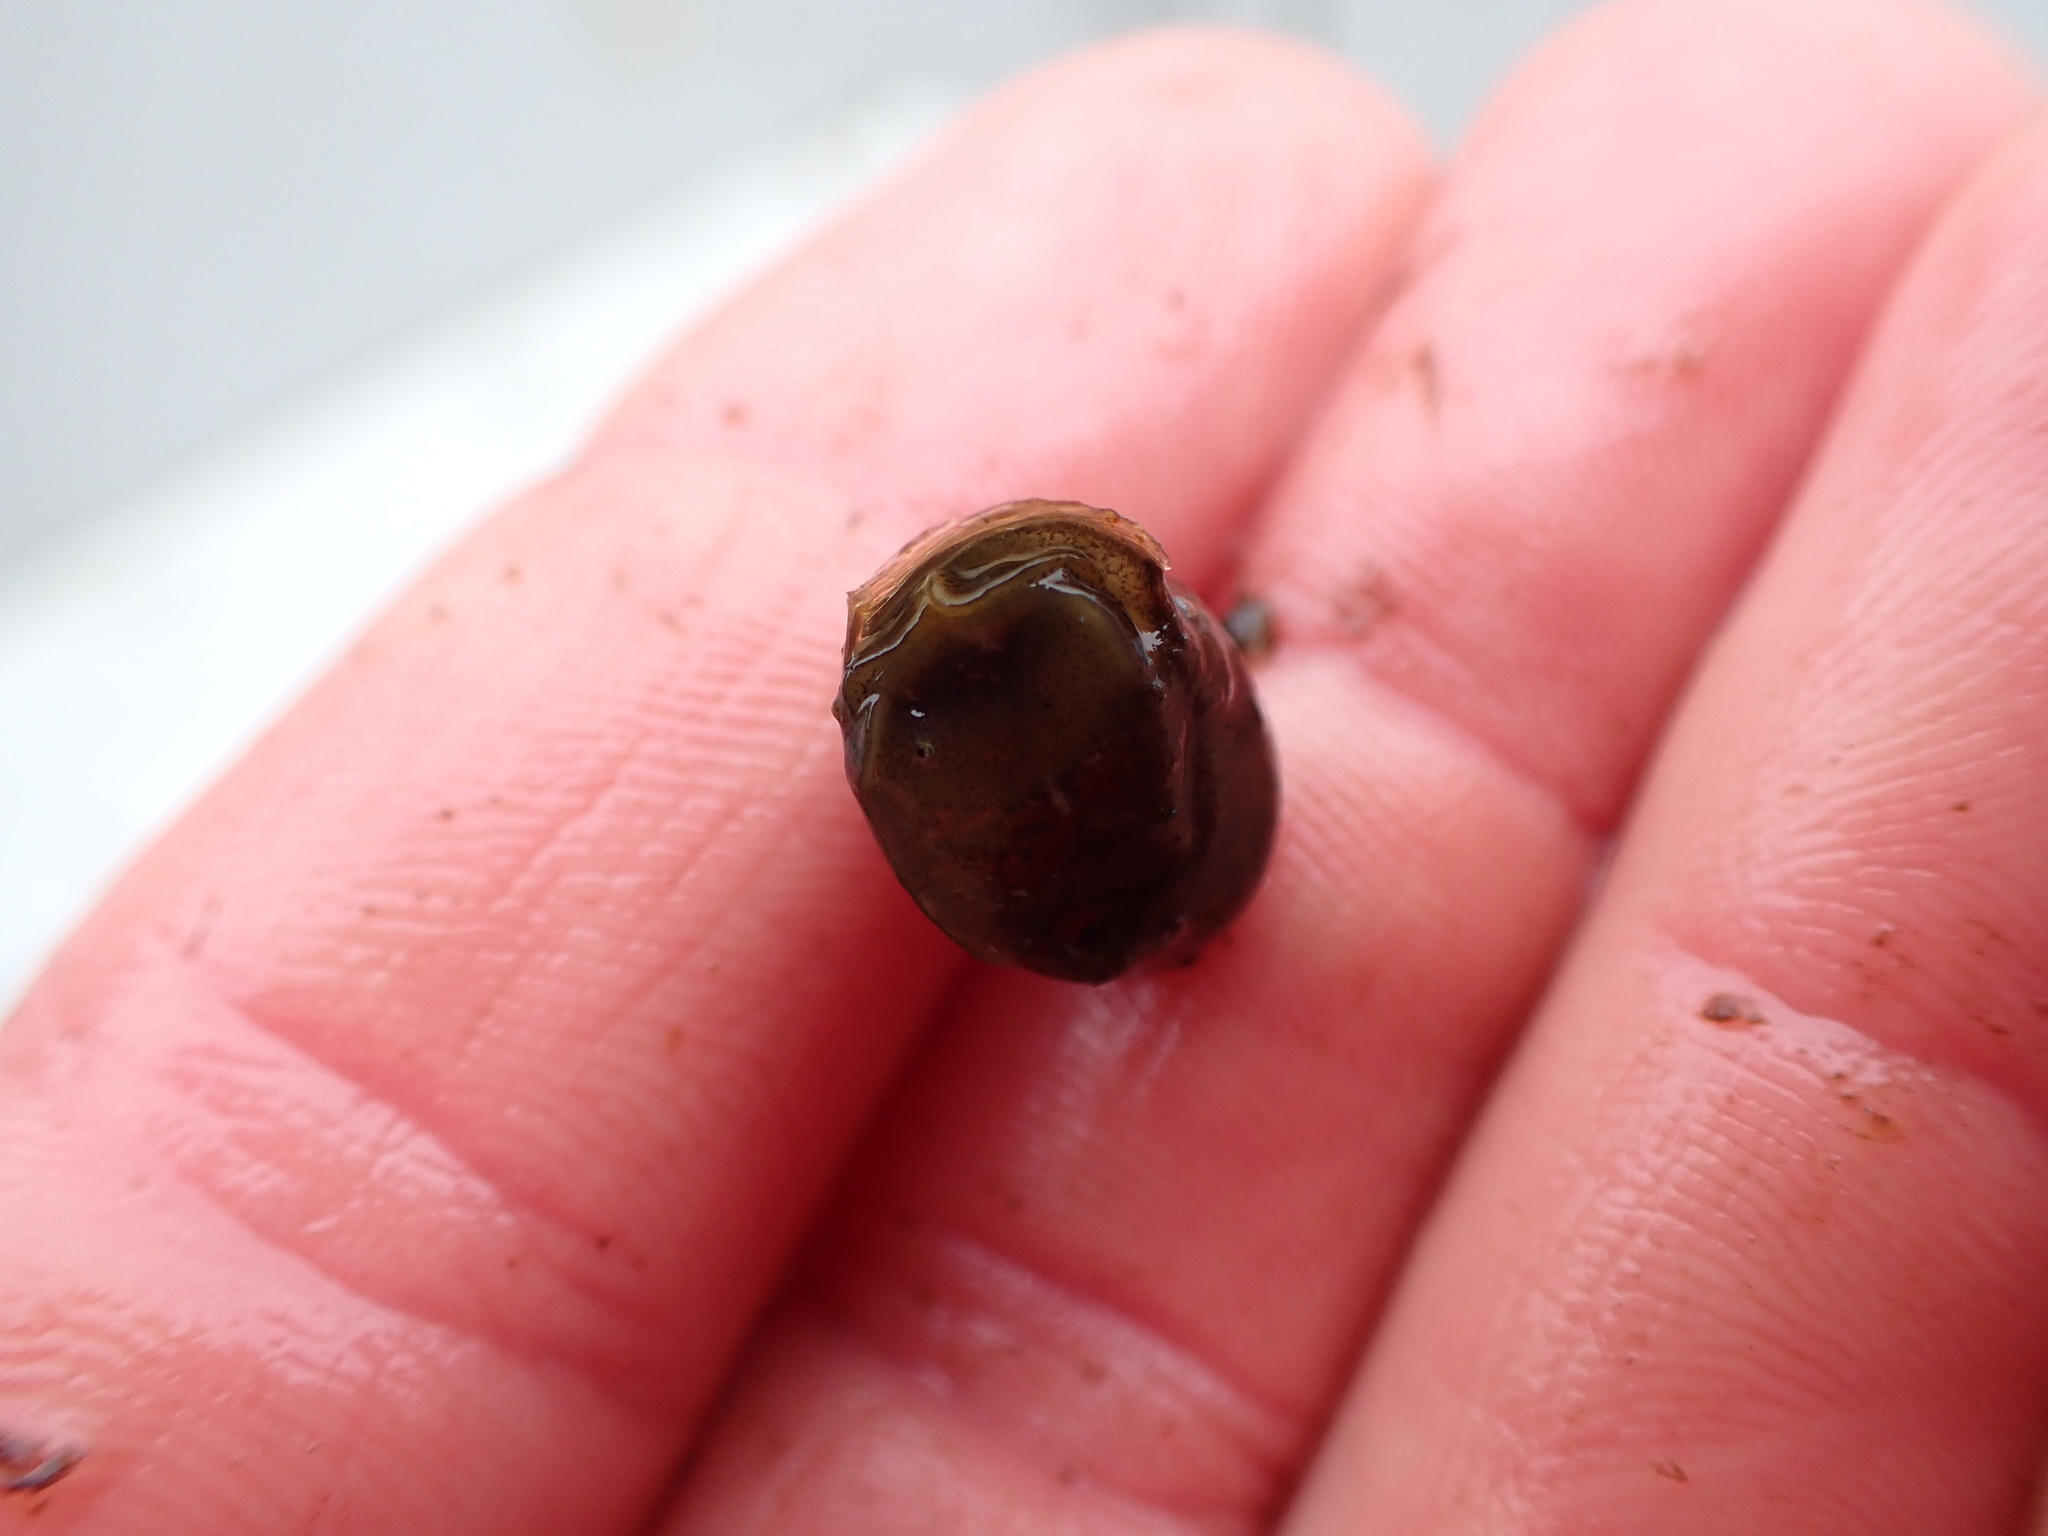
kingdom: Animalia
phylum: Mollusca
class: Gastropoda
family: Lymnaeidae
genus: Radix
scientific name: Radix auricularia
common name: Ear pond snail
